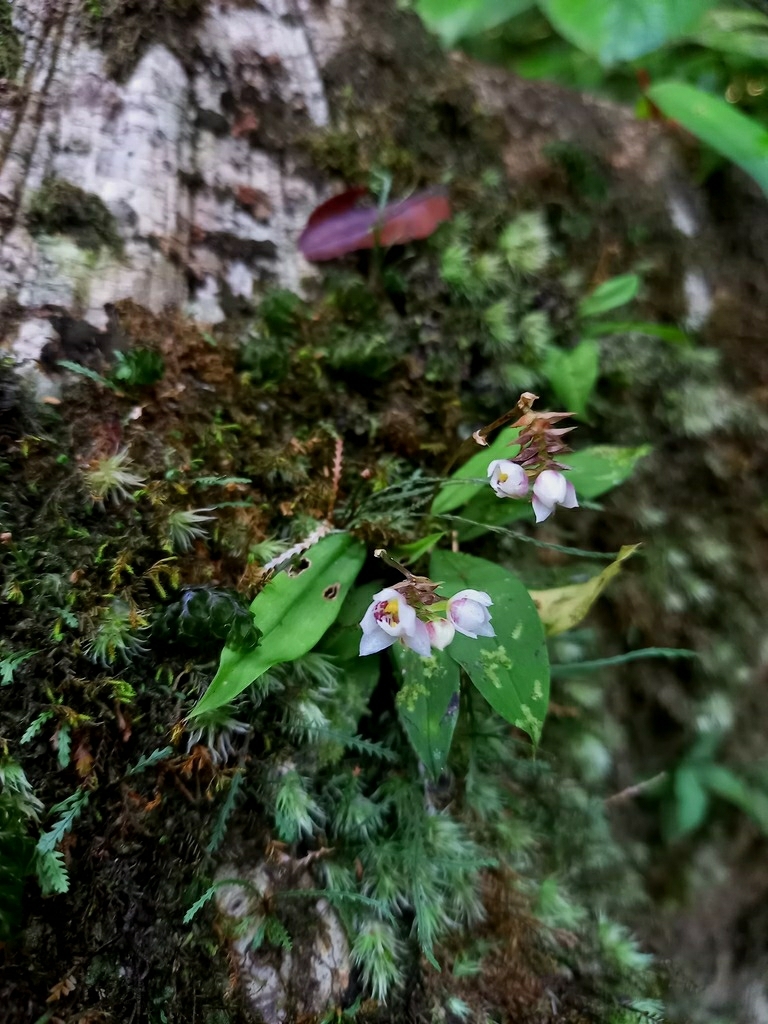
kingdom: Plantae
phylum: Tracheophyta
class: Liliopsida
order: Asparagales
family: Orchidaceae
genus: Cheiradenia
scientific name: Cheiradenia cuspidata
